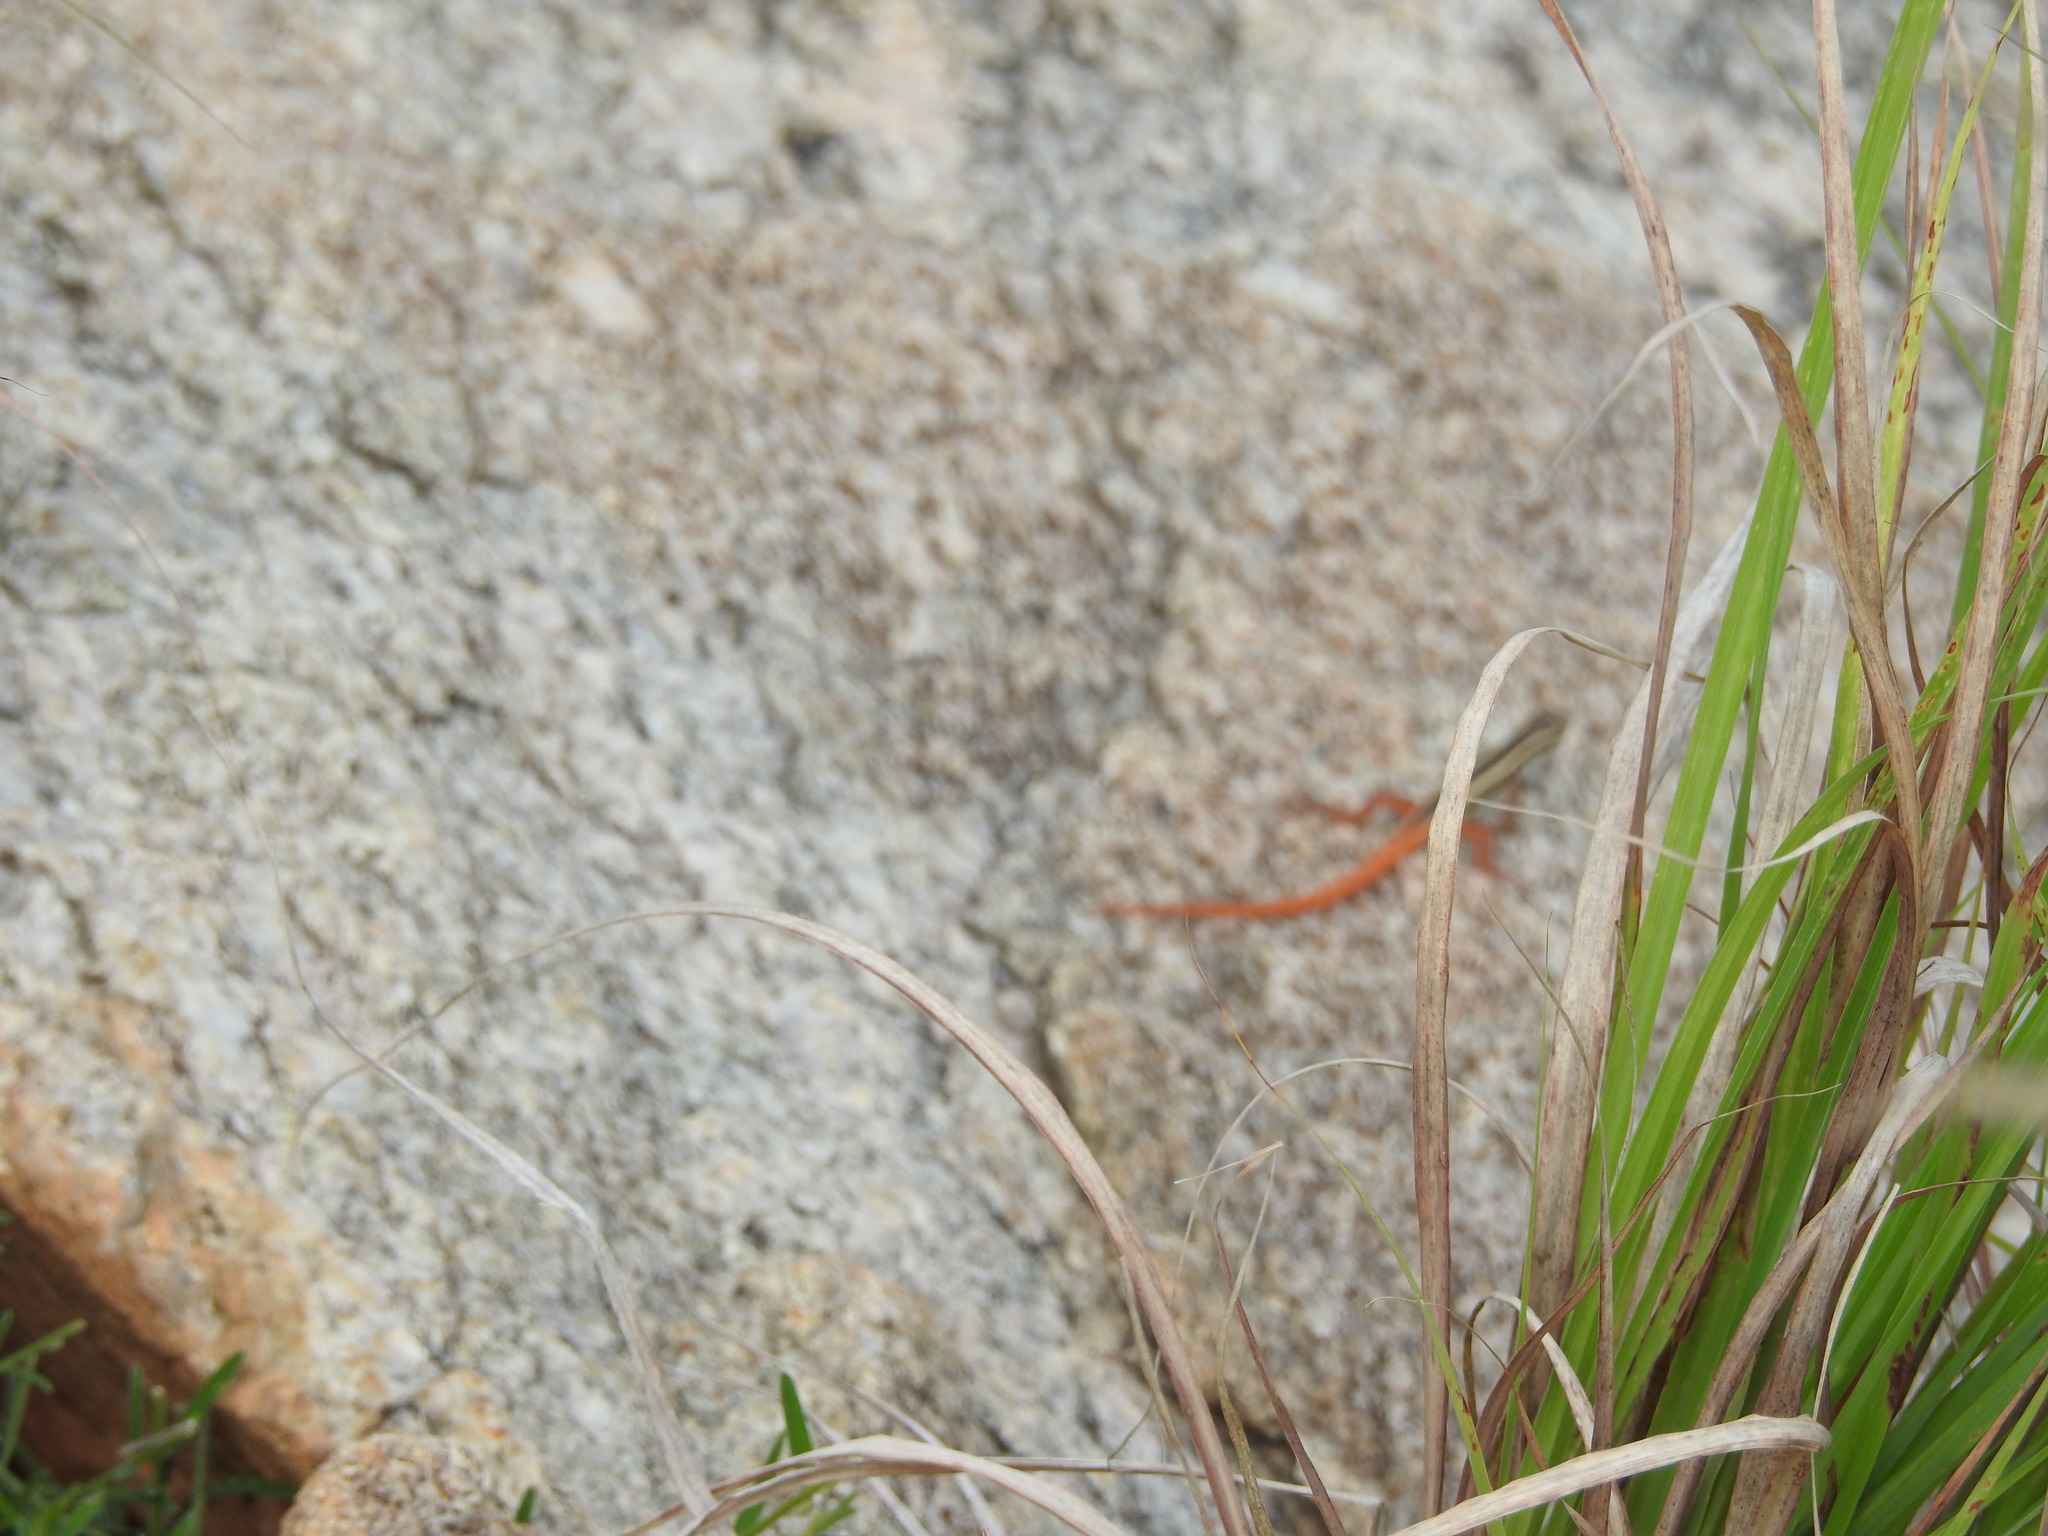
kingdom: Animalia
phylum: Chordata
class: Squamata
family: Lacertidae
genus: Ophisops
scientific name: Ophisops leschenaultii
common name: Leschenault's cabrita
